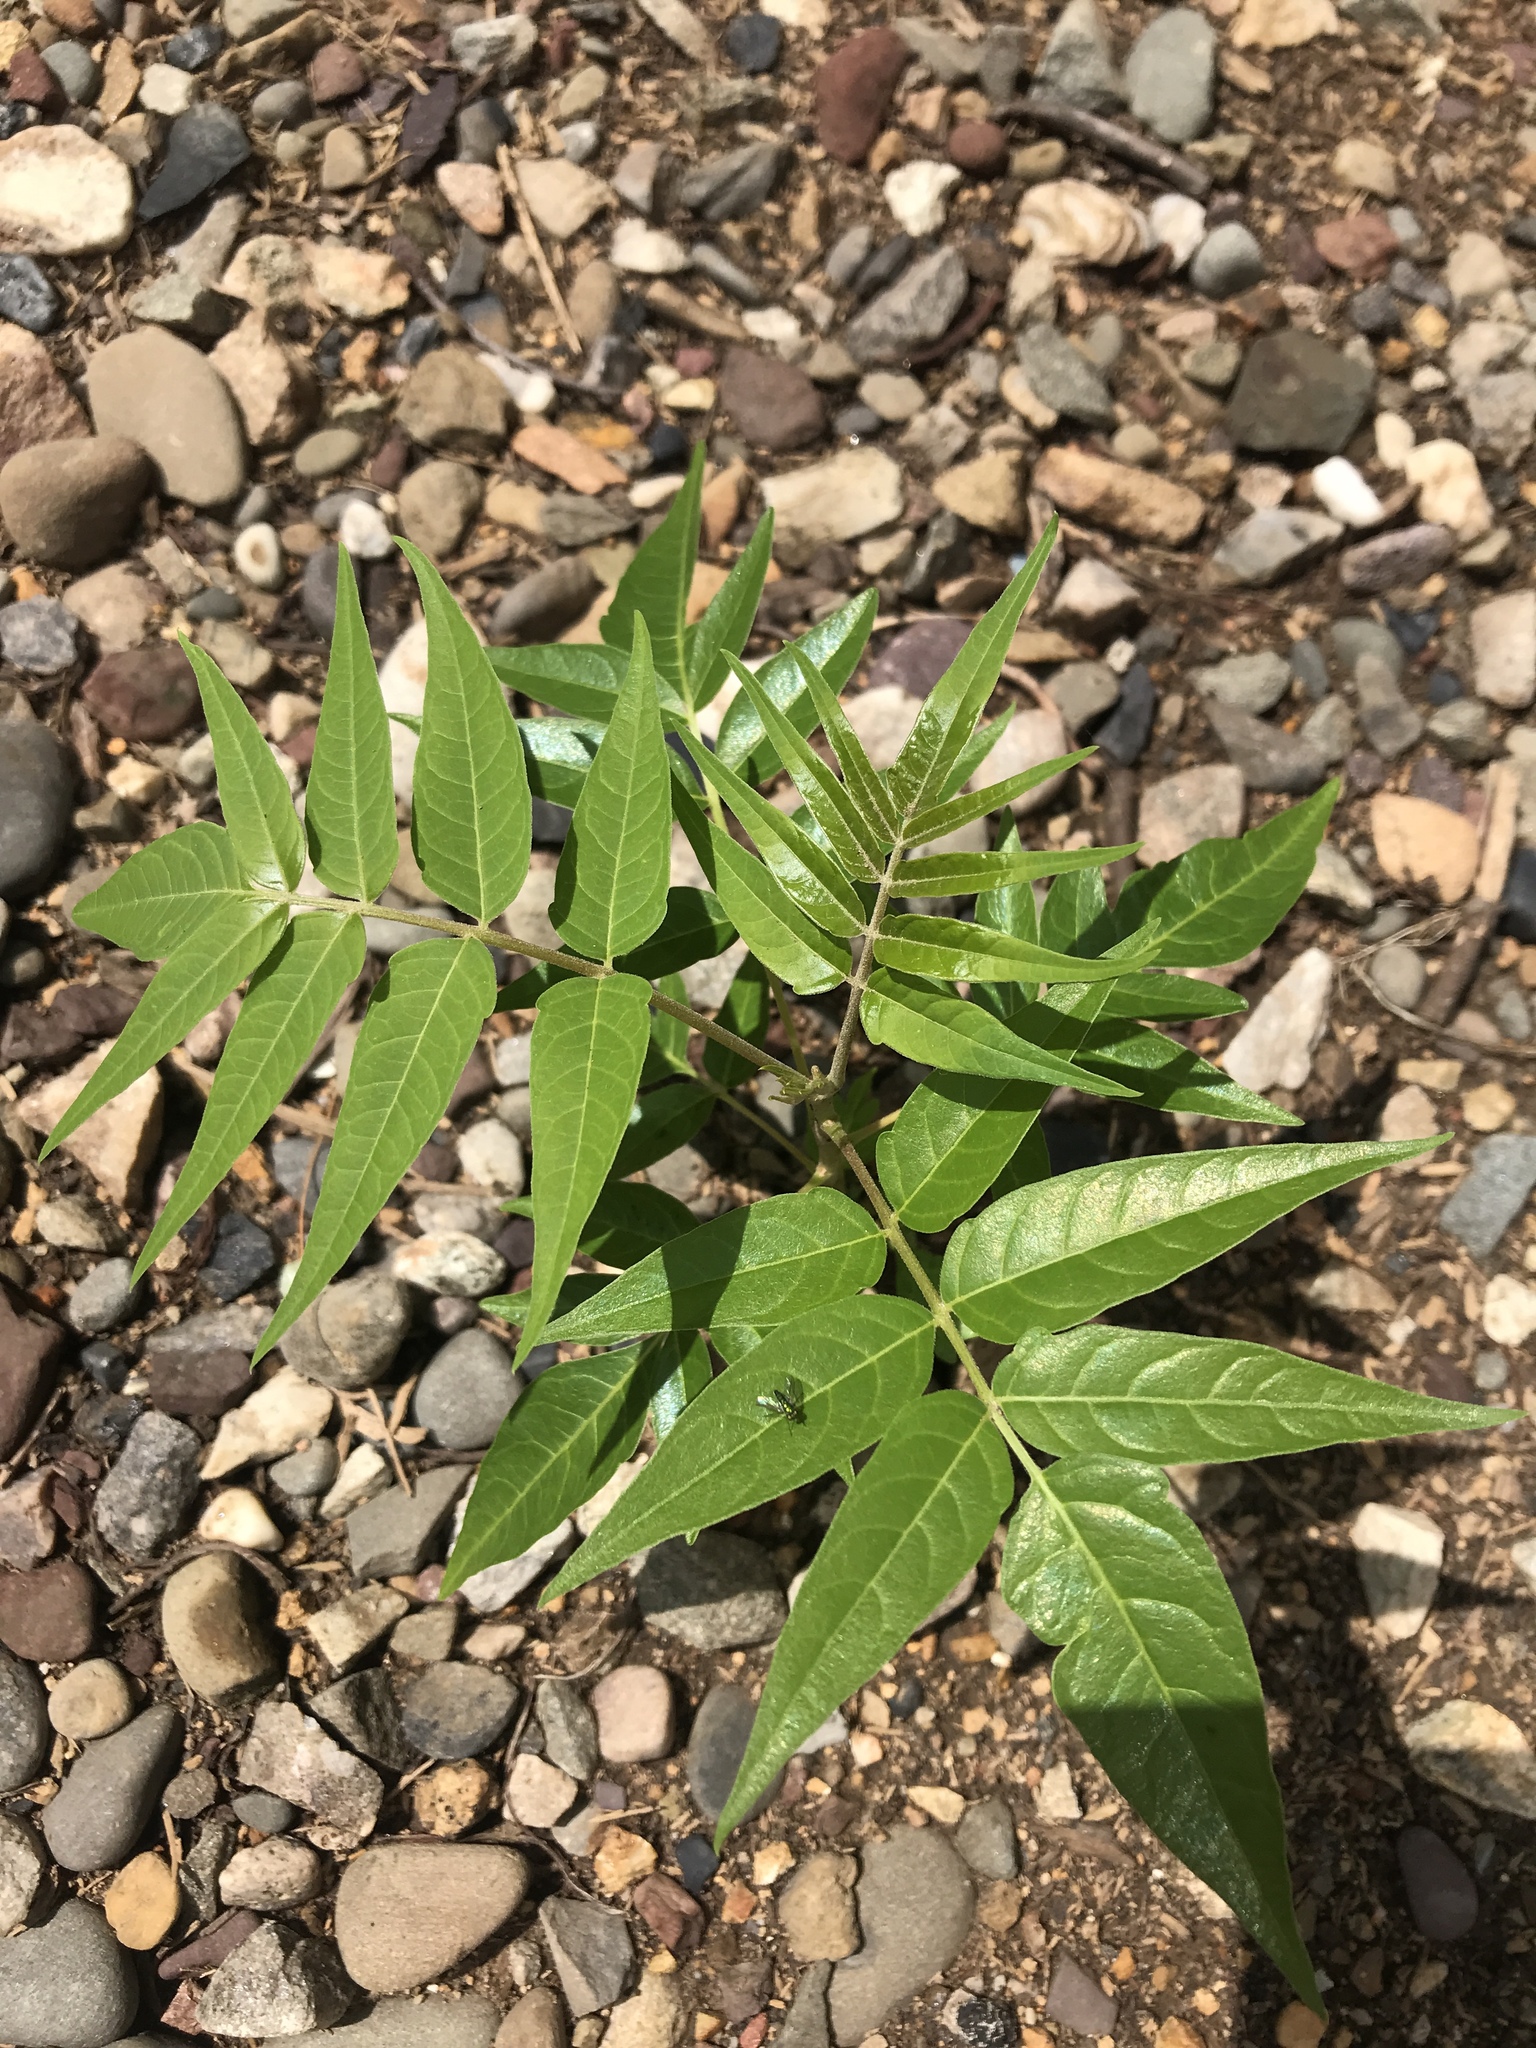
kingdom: Plantae
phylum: Tracheophyta
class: Magnoliopsida
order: Sapindales
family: Simaroubaceae
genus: Ailanthus
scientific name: Ailanthus altissima
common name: Tree-of-heaven
